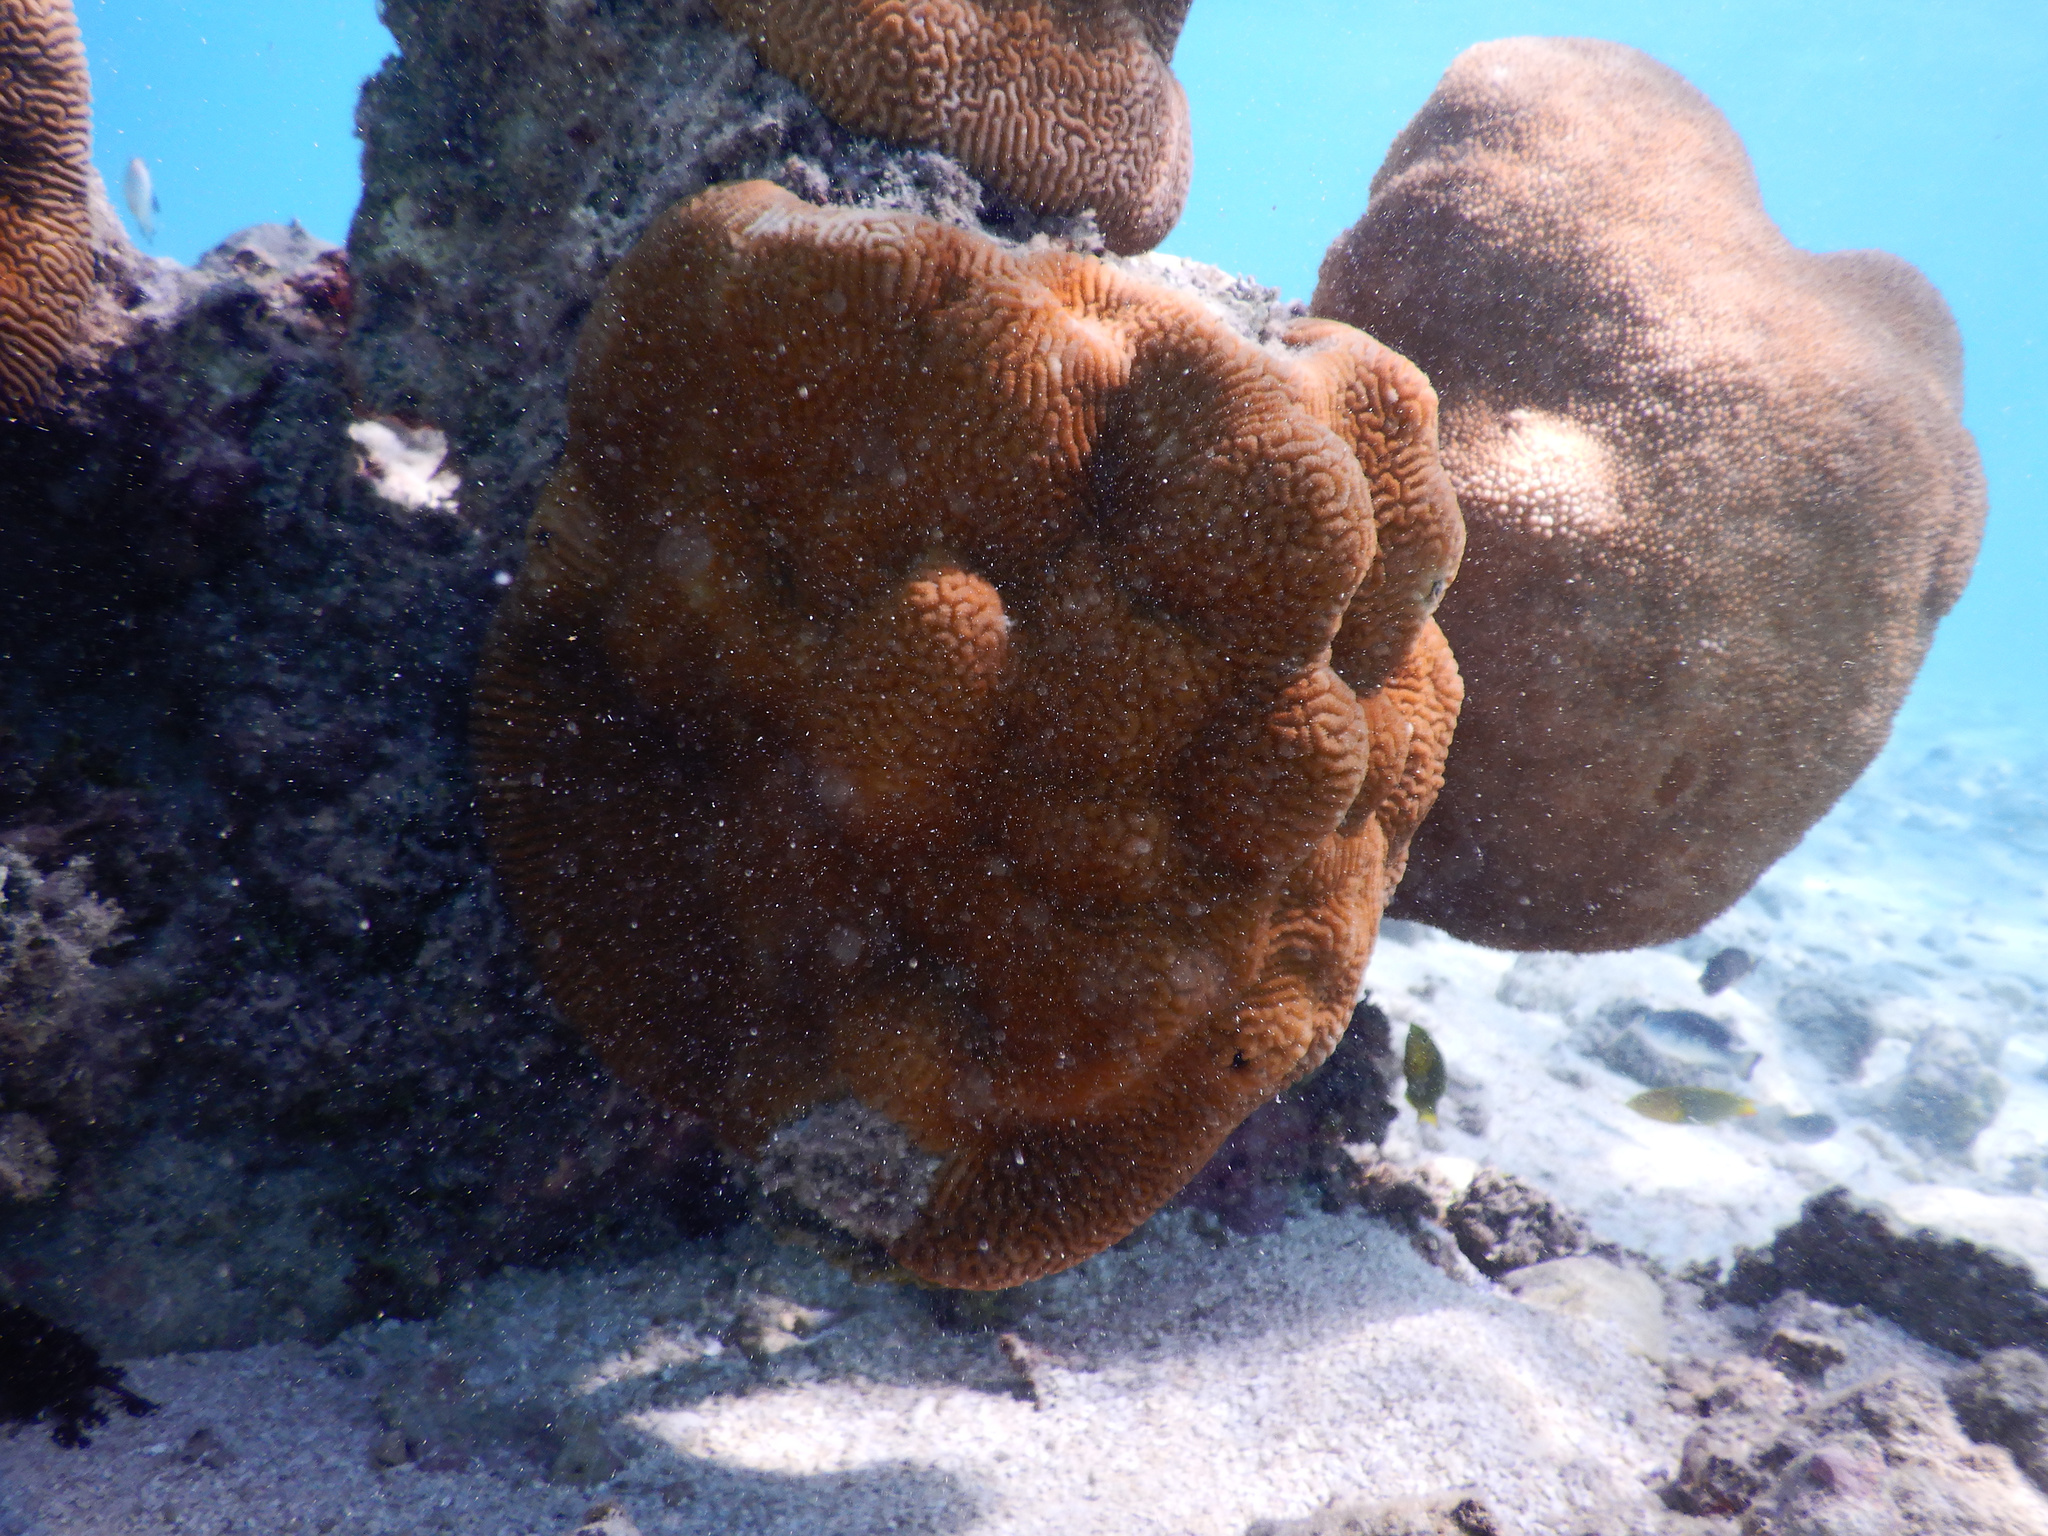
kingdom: Animalia
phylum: Cnidaria
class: Anthozoa
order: Scleractinia
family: Merulinidae
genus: Leptoria
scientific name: Leptoria phrygia
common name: Least valley coral
